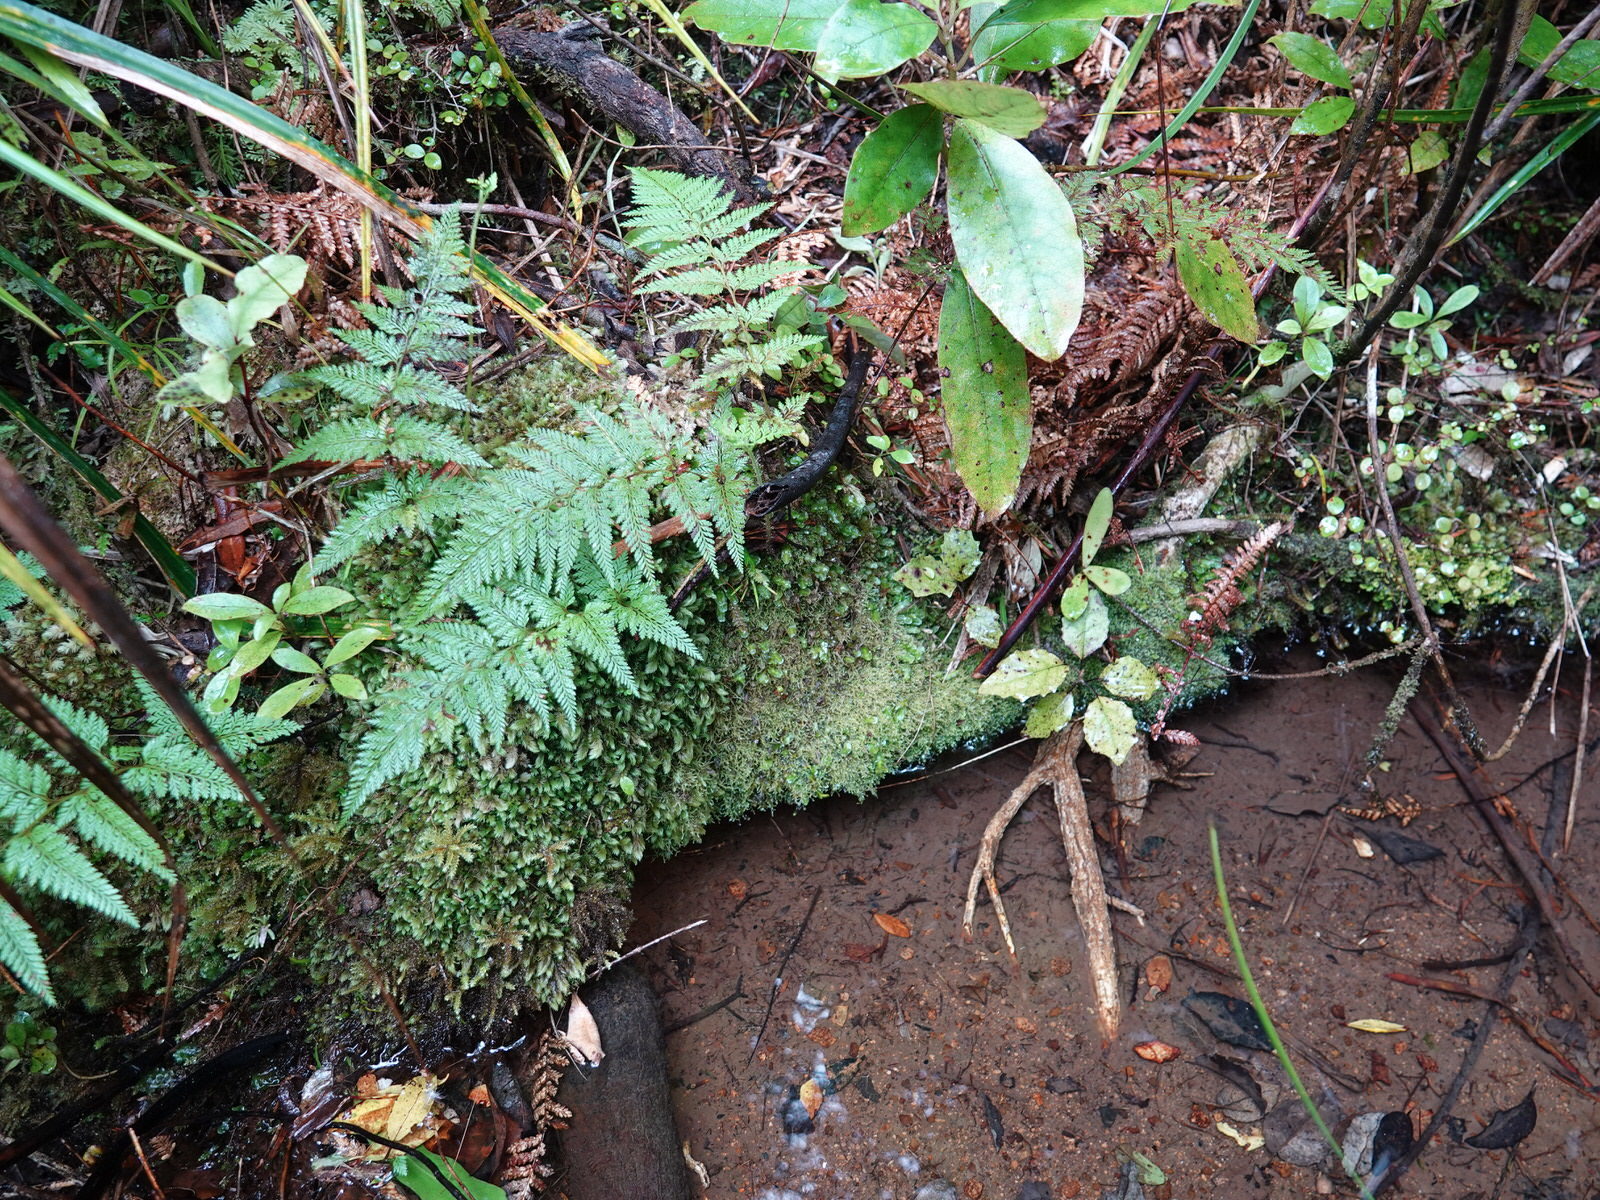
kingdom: Plantae
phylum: Tracheophyta
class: Polypodiopsida
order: Polypodiales
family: Dennstaedtiaceae
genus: Paesia
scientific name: Paesia scaberula
